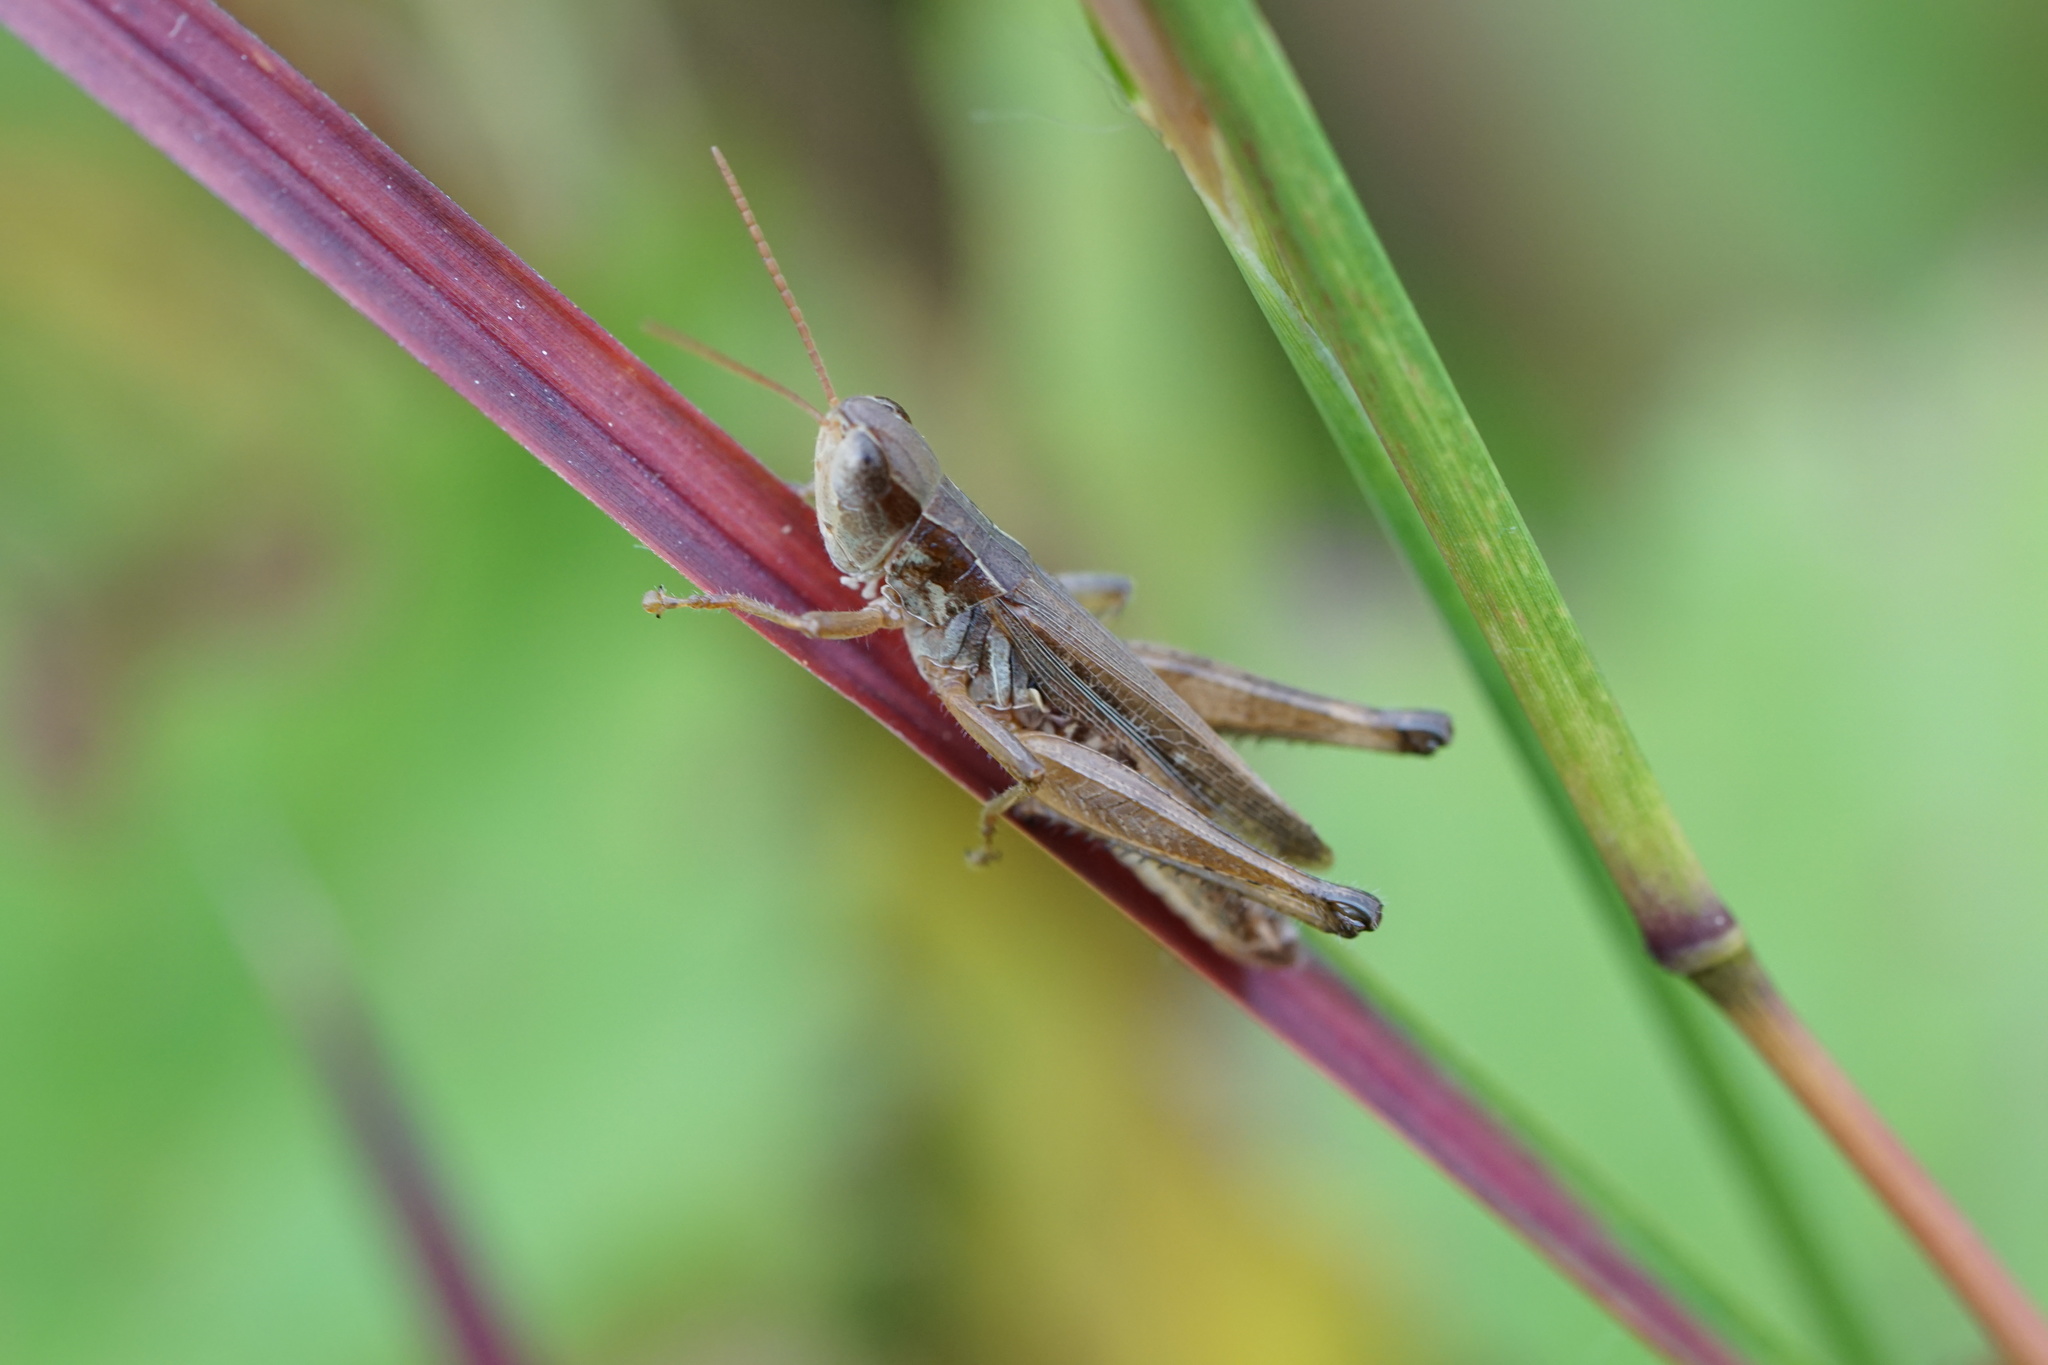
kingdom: Animalia
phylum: Arthropoda
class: Insecta
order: Orthoptera
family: Acrididae
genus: Orphulella
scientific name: Orphulella speciosa
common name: Pasture grasshopper
